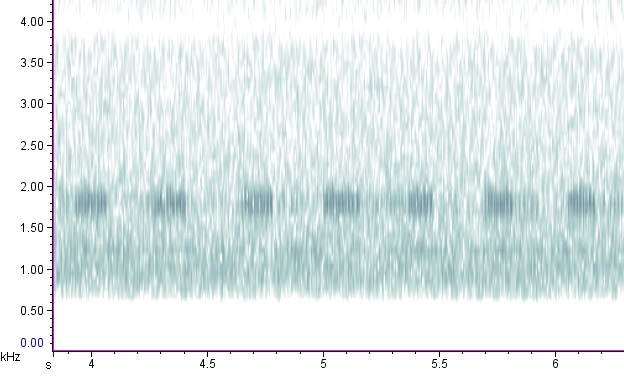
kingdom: Animalia
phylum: Arthropoda
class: Insecta
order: Orthoptera
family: Gryllotalpidae
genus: Neocurtilla
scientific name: Neocurtilla hexadactyla
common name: Northern mole cricket
